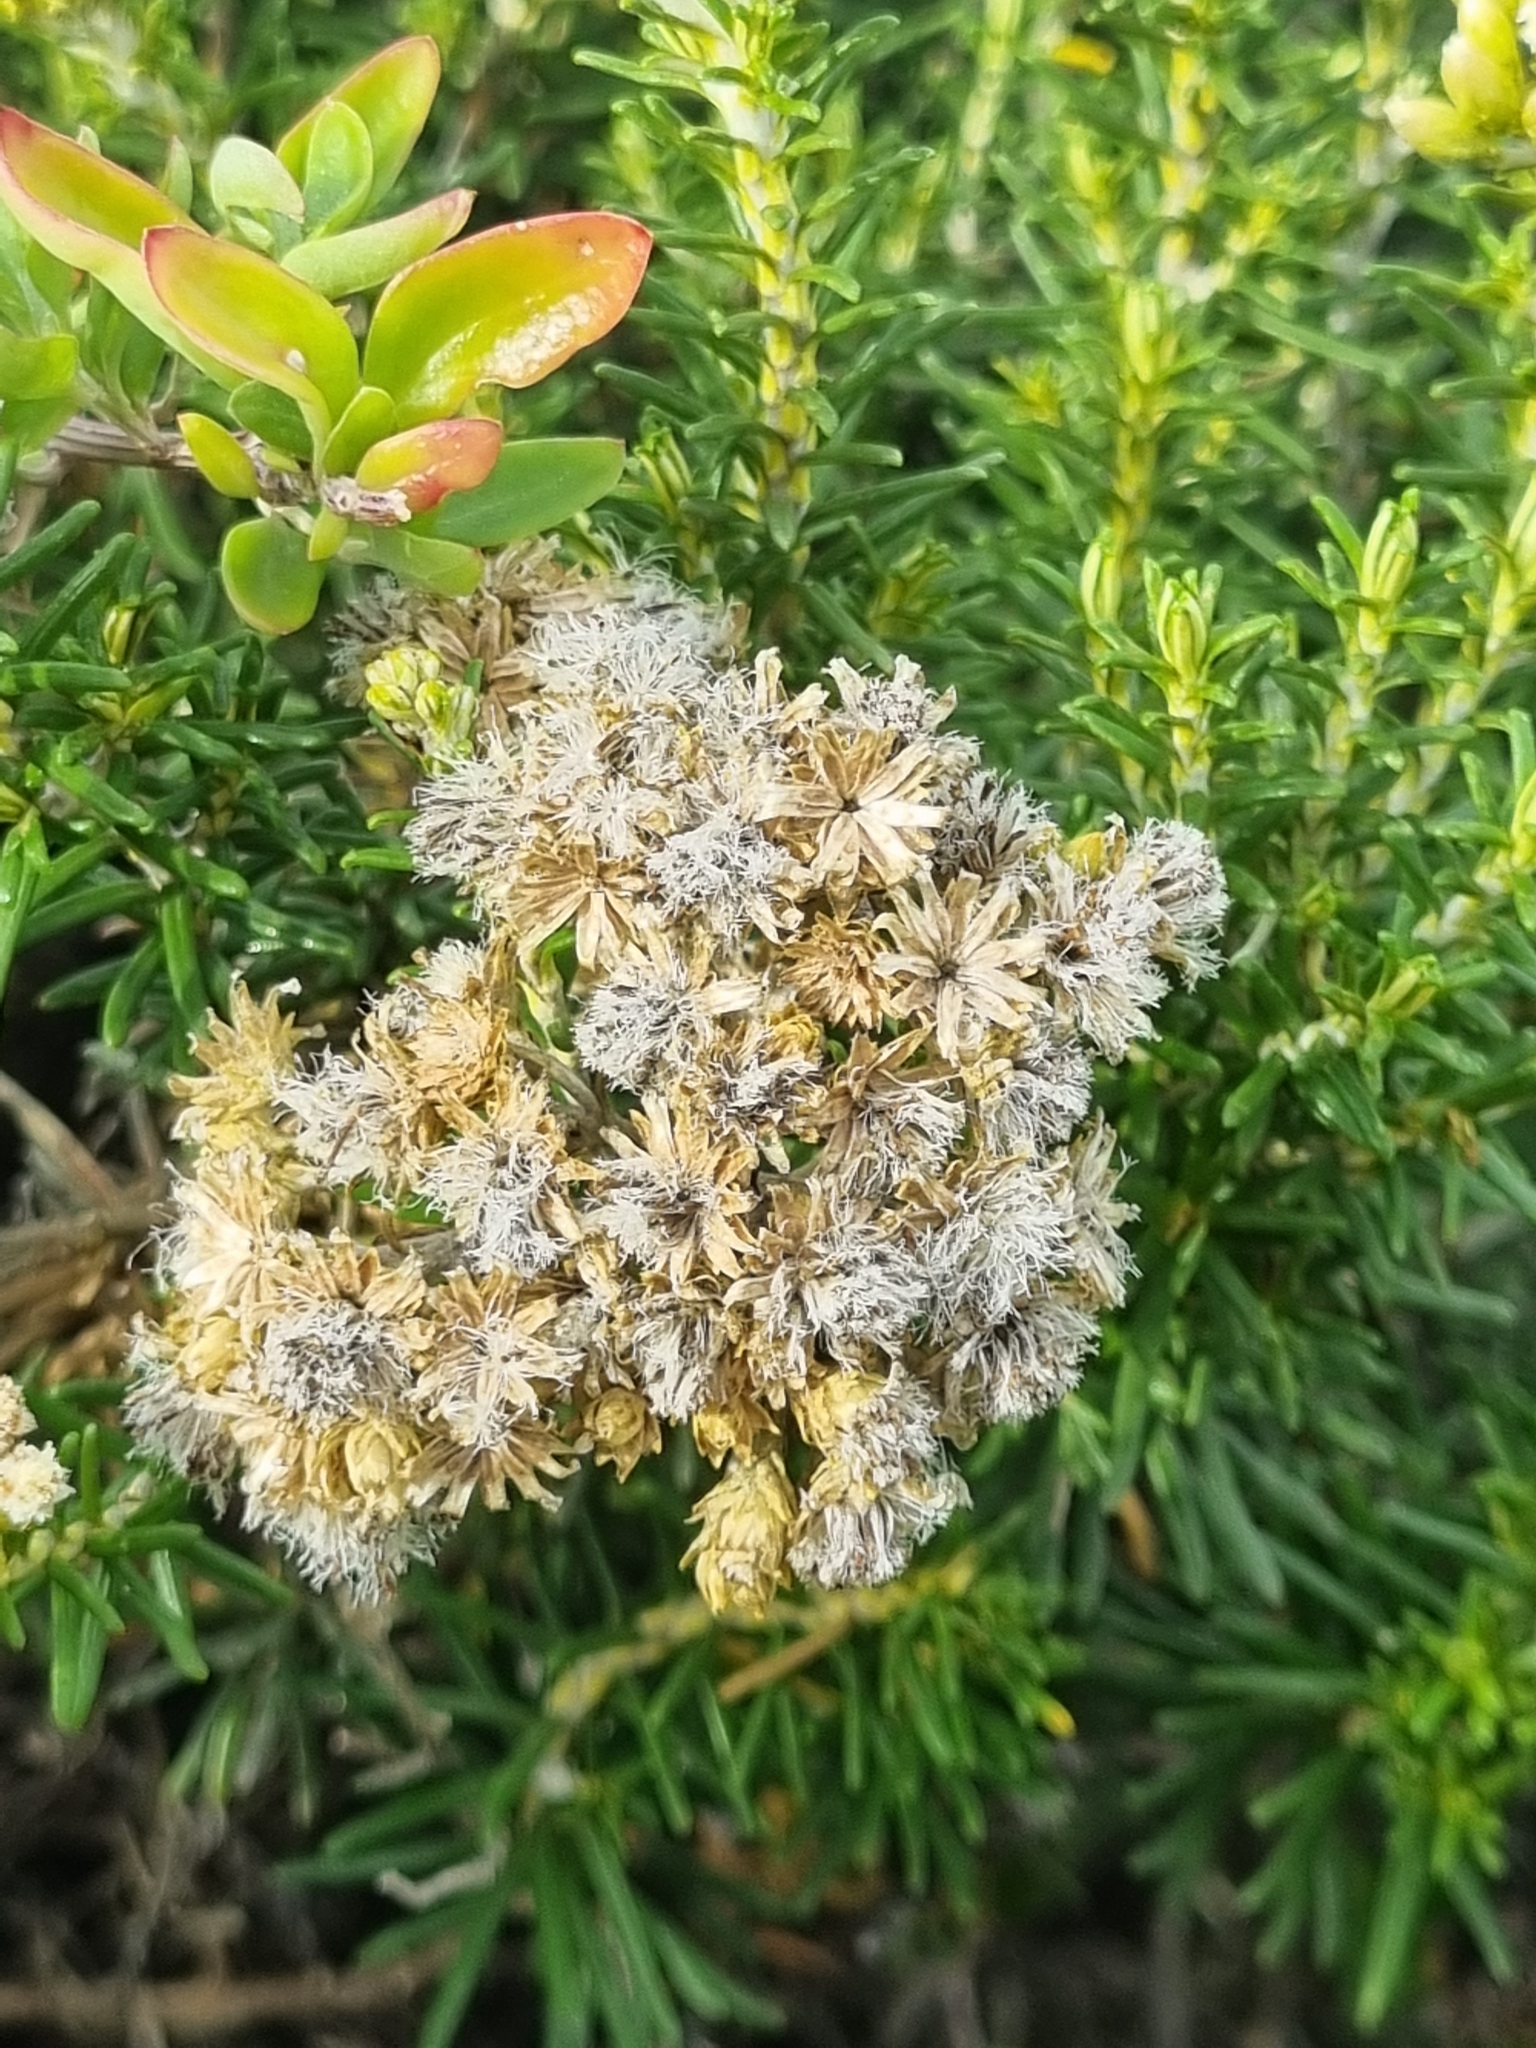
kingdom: Plantae
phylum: Tracheophyta
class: Magnoliopsida
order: Asterales
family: Asteraceae
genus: Ozothamnus
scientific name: Ozothamnus cinereus
